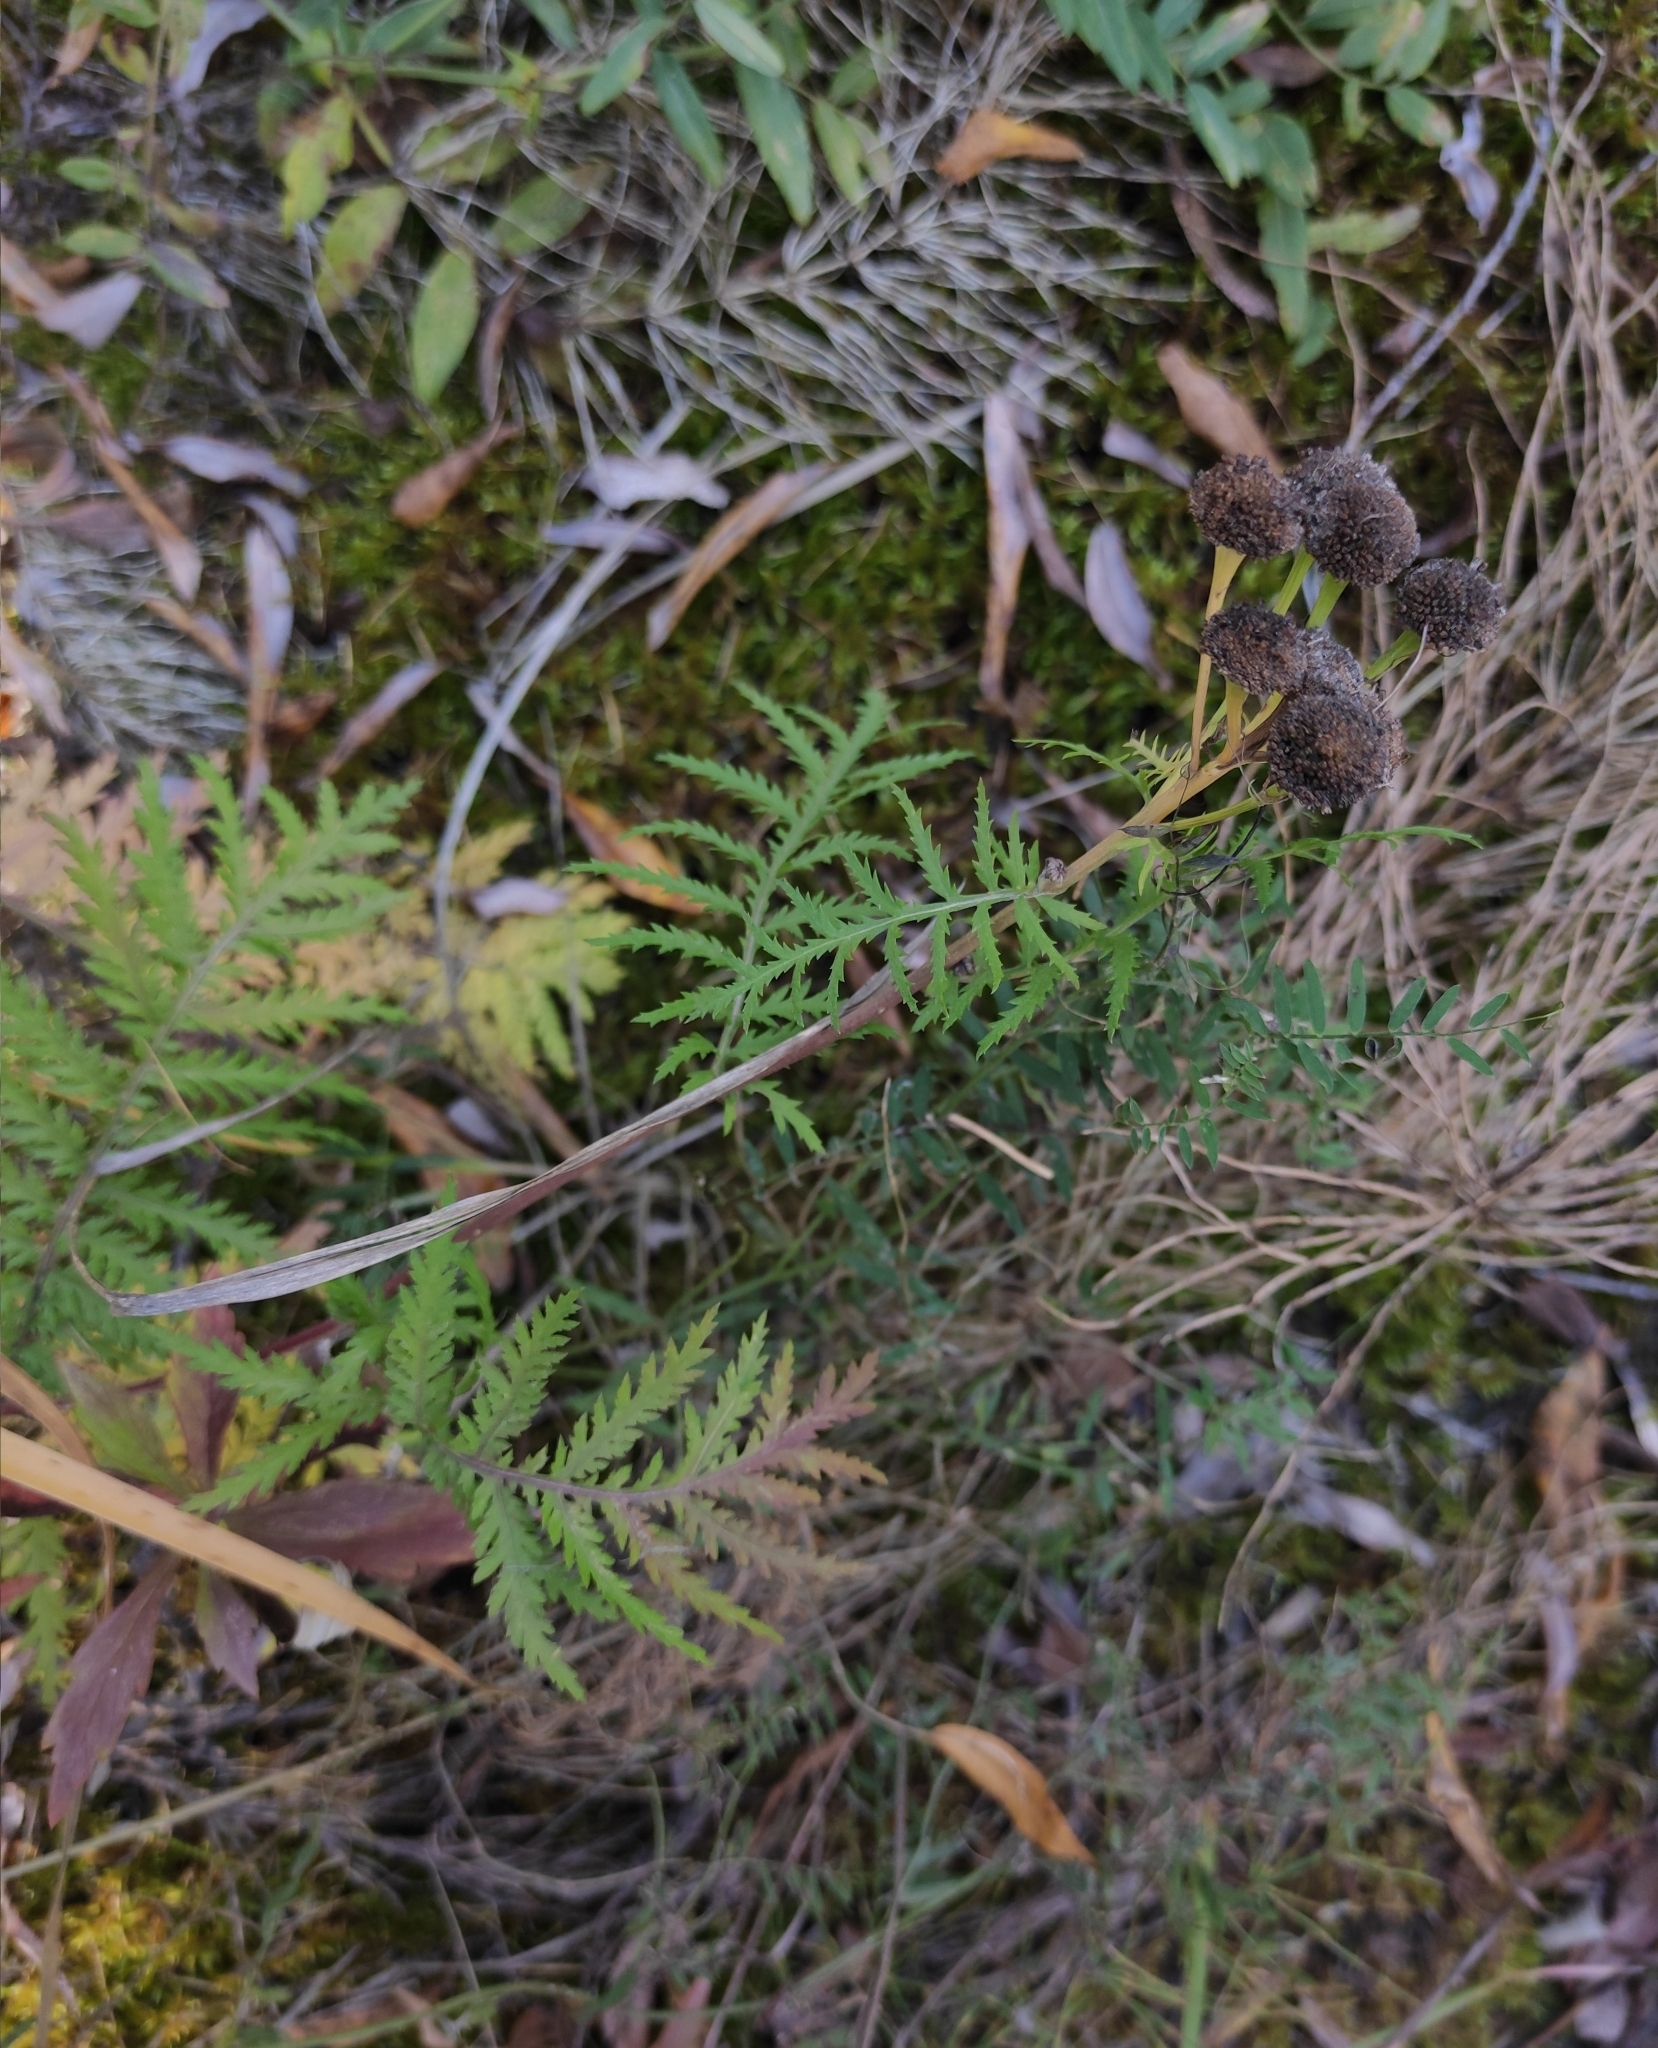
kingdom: Plantae
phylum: Tracheophyta
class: Magnoliopsida
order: Asterales
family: Asteraceae
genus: Tanacetum
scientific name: Tanacetum vulgare
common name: Common tansy
